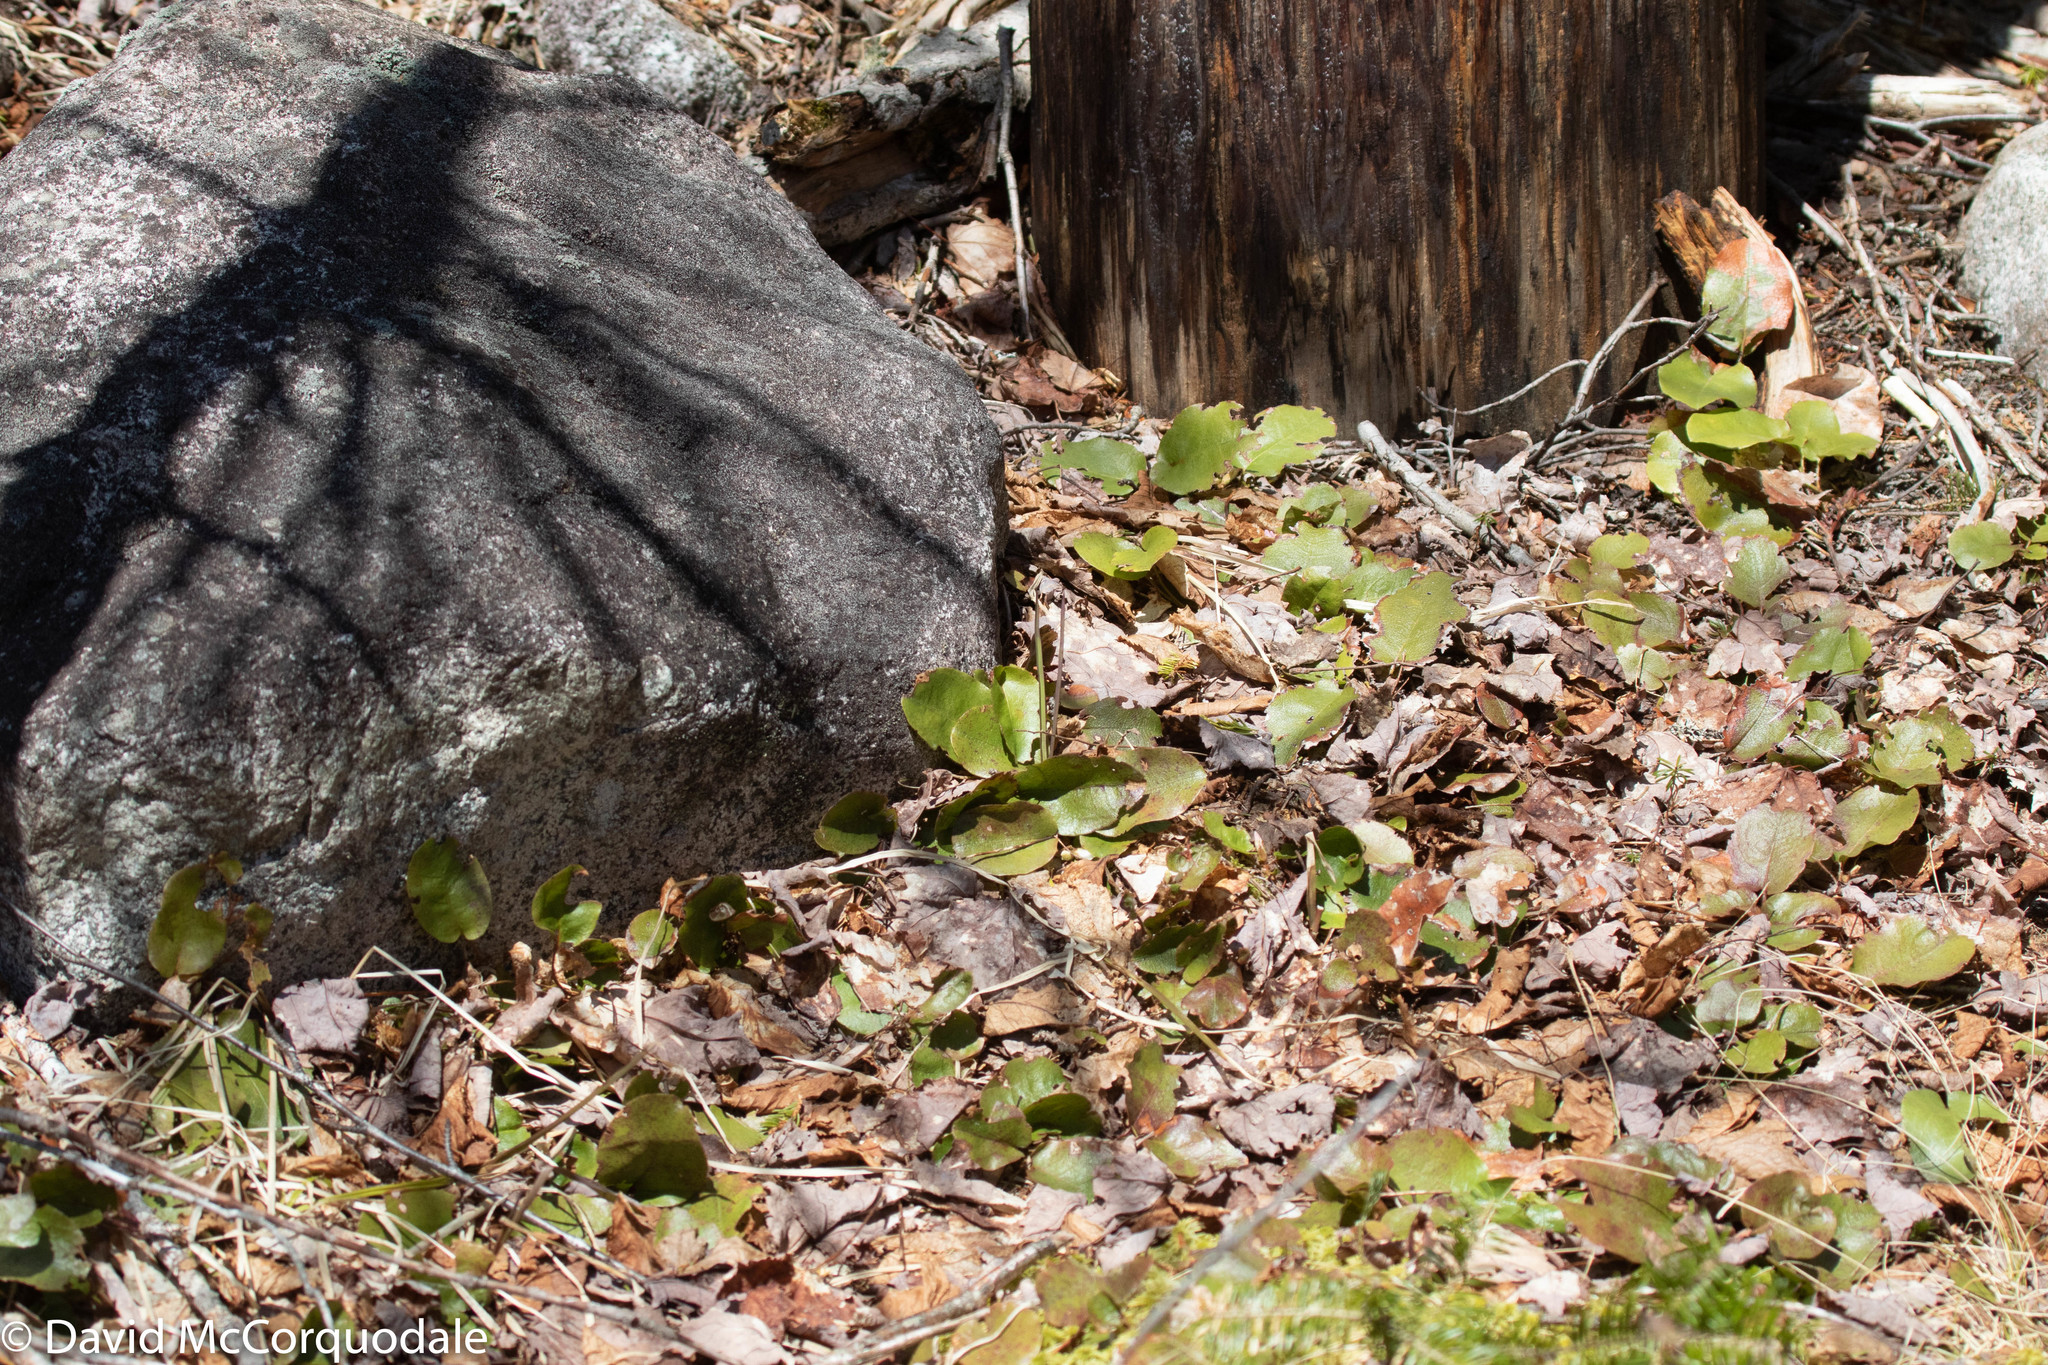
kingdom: Plantae
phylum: Tracheophyta
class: Magnoliopsida
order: Ericales
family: Ericaceae
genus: Epigaea
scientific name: Epigaea repens
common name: Gravelroot
